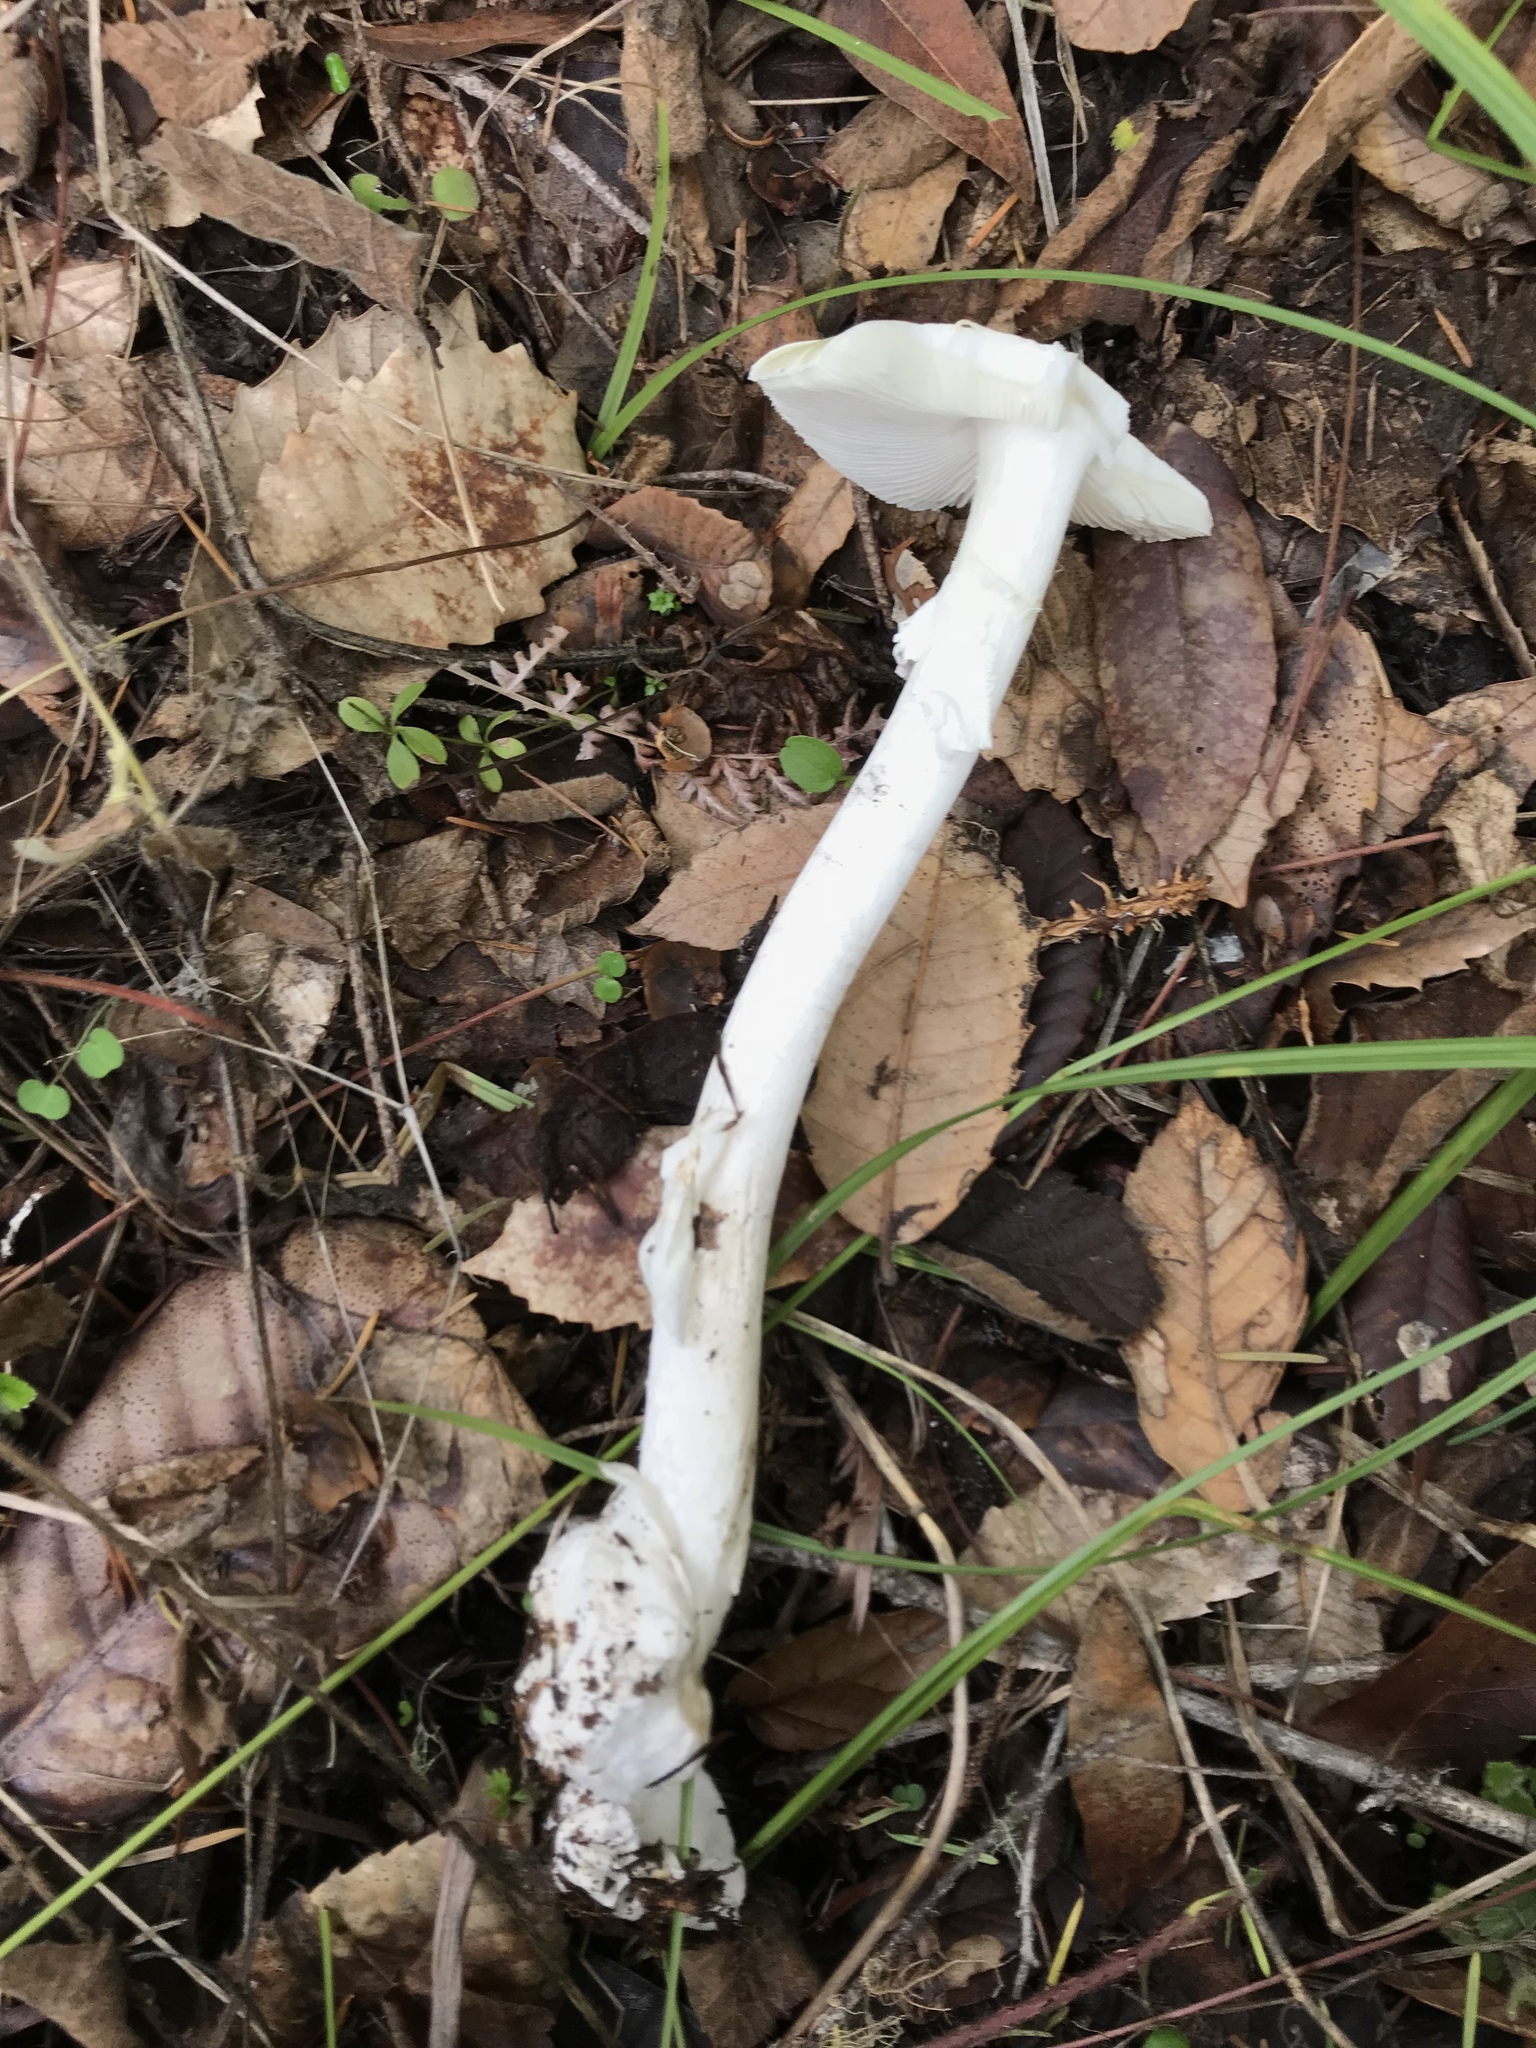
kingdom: Fungi
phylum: Basidiomycota
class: Agaricomycetes
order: Agaricales
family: Amanitaceae
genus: Amanita
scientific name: Amanita phalloides
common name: Death cap
